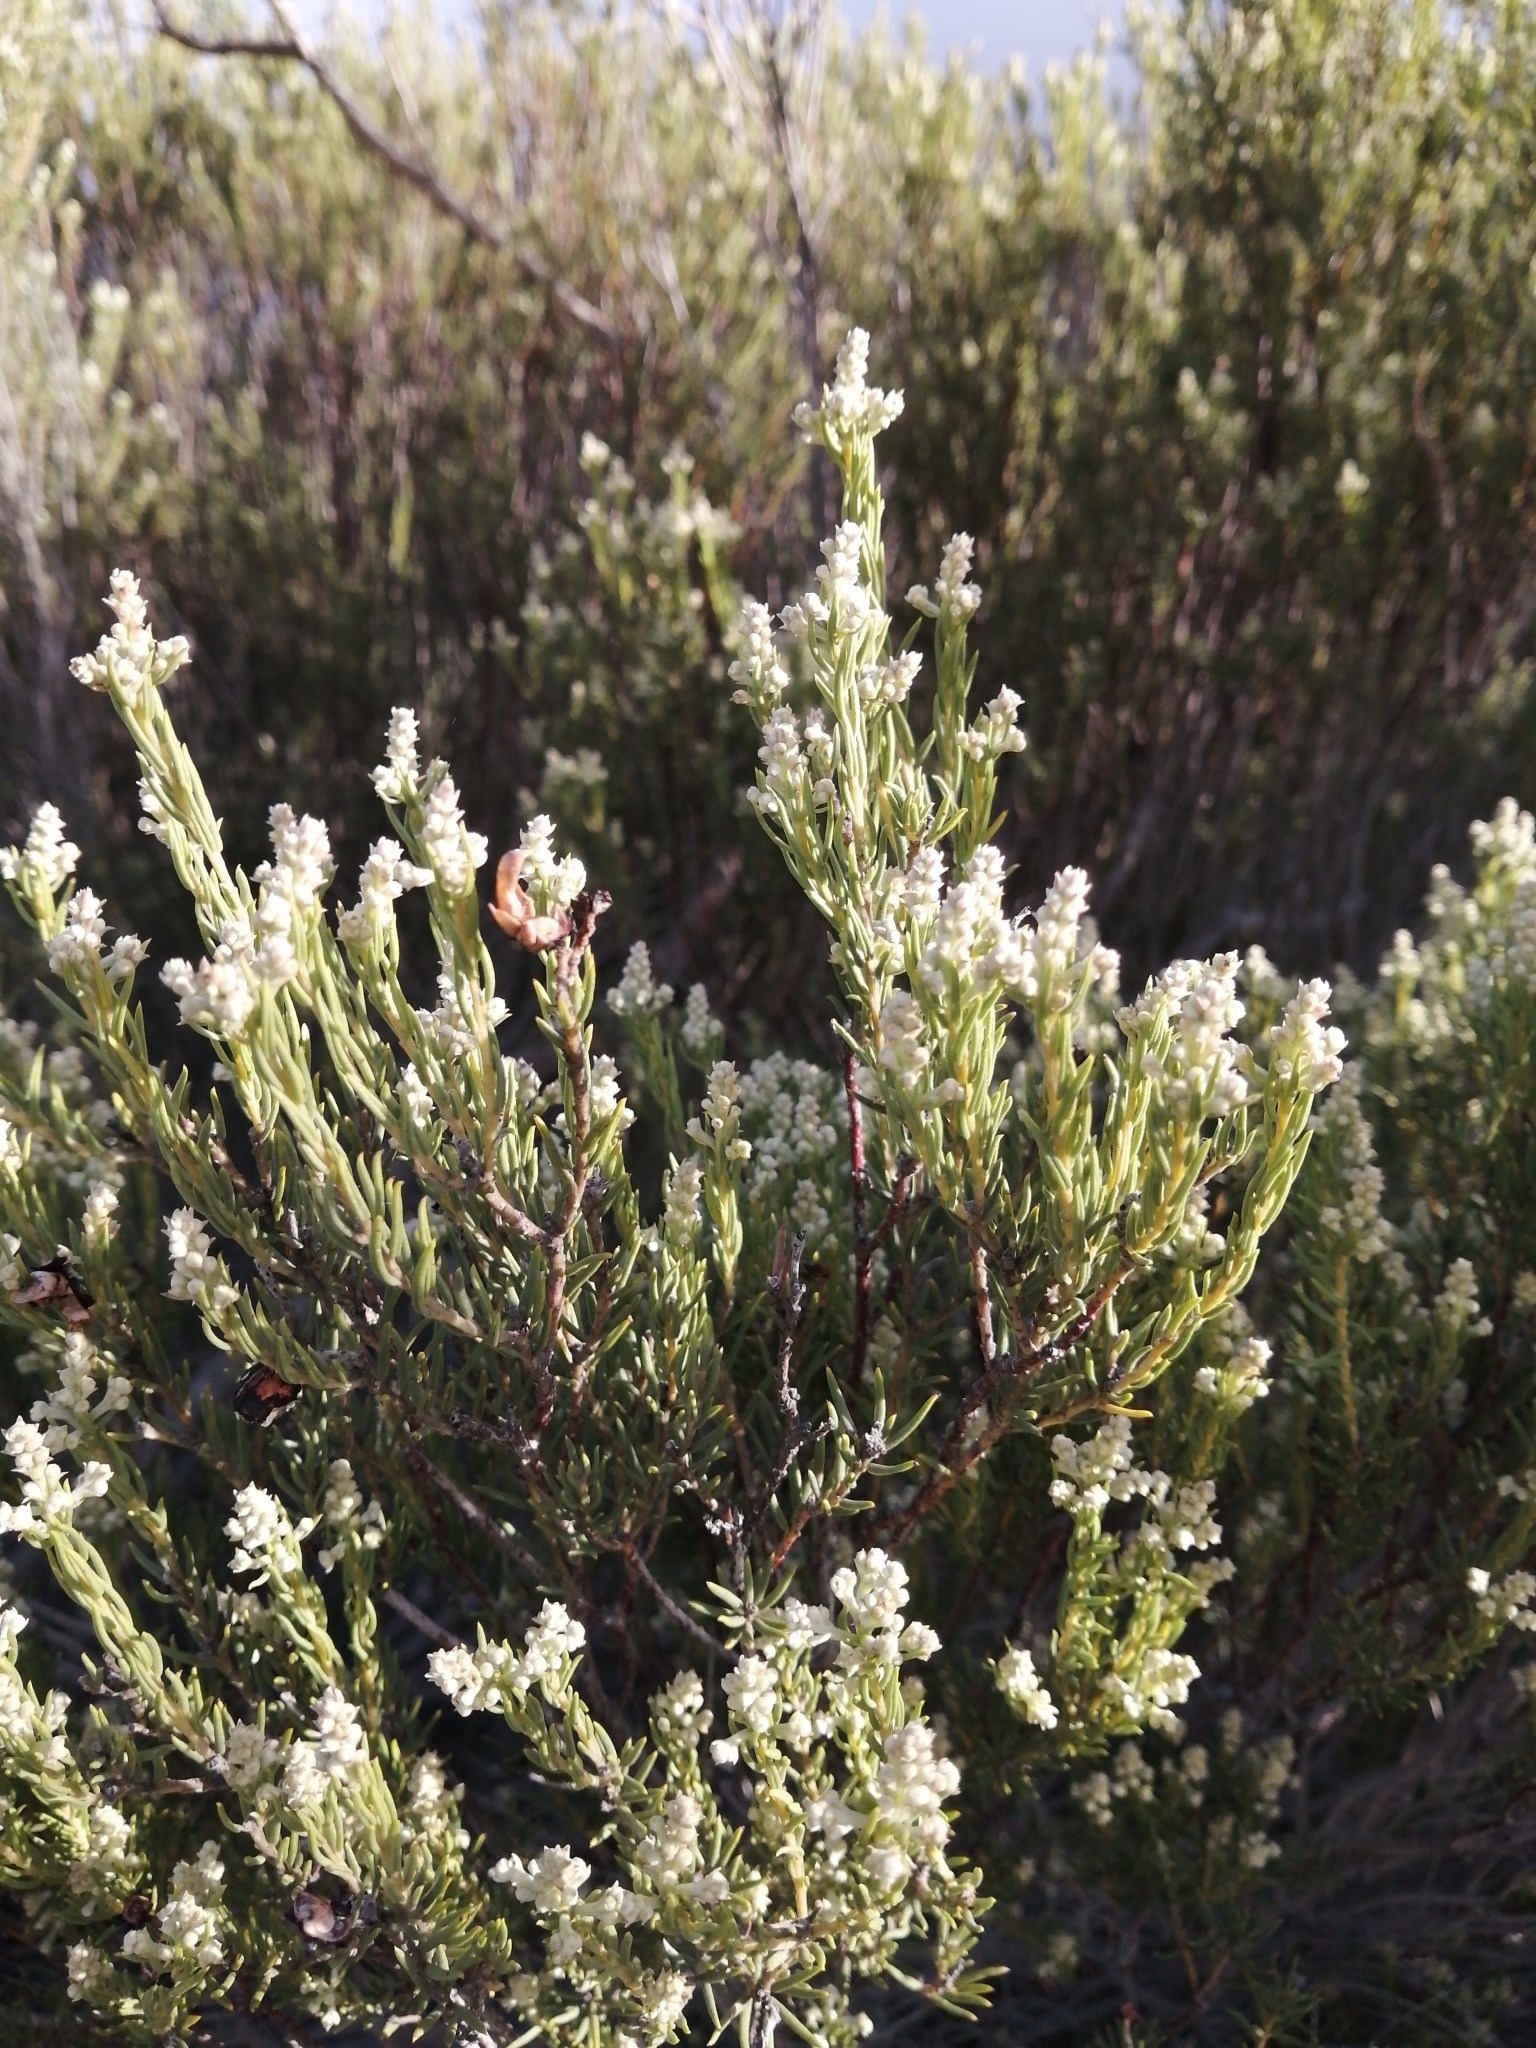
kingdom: Plantae
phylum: Tracheophyta
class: Magnoliopsida
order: Rosales
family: Rhamnaceae
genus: Phylica
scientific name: Phylica rigidifolia
